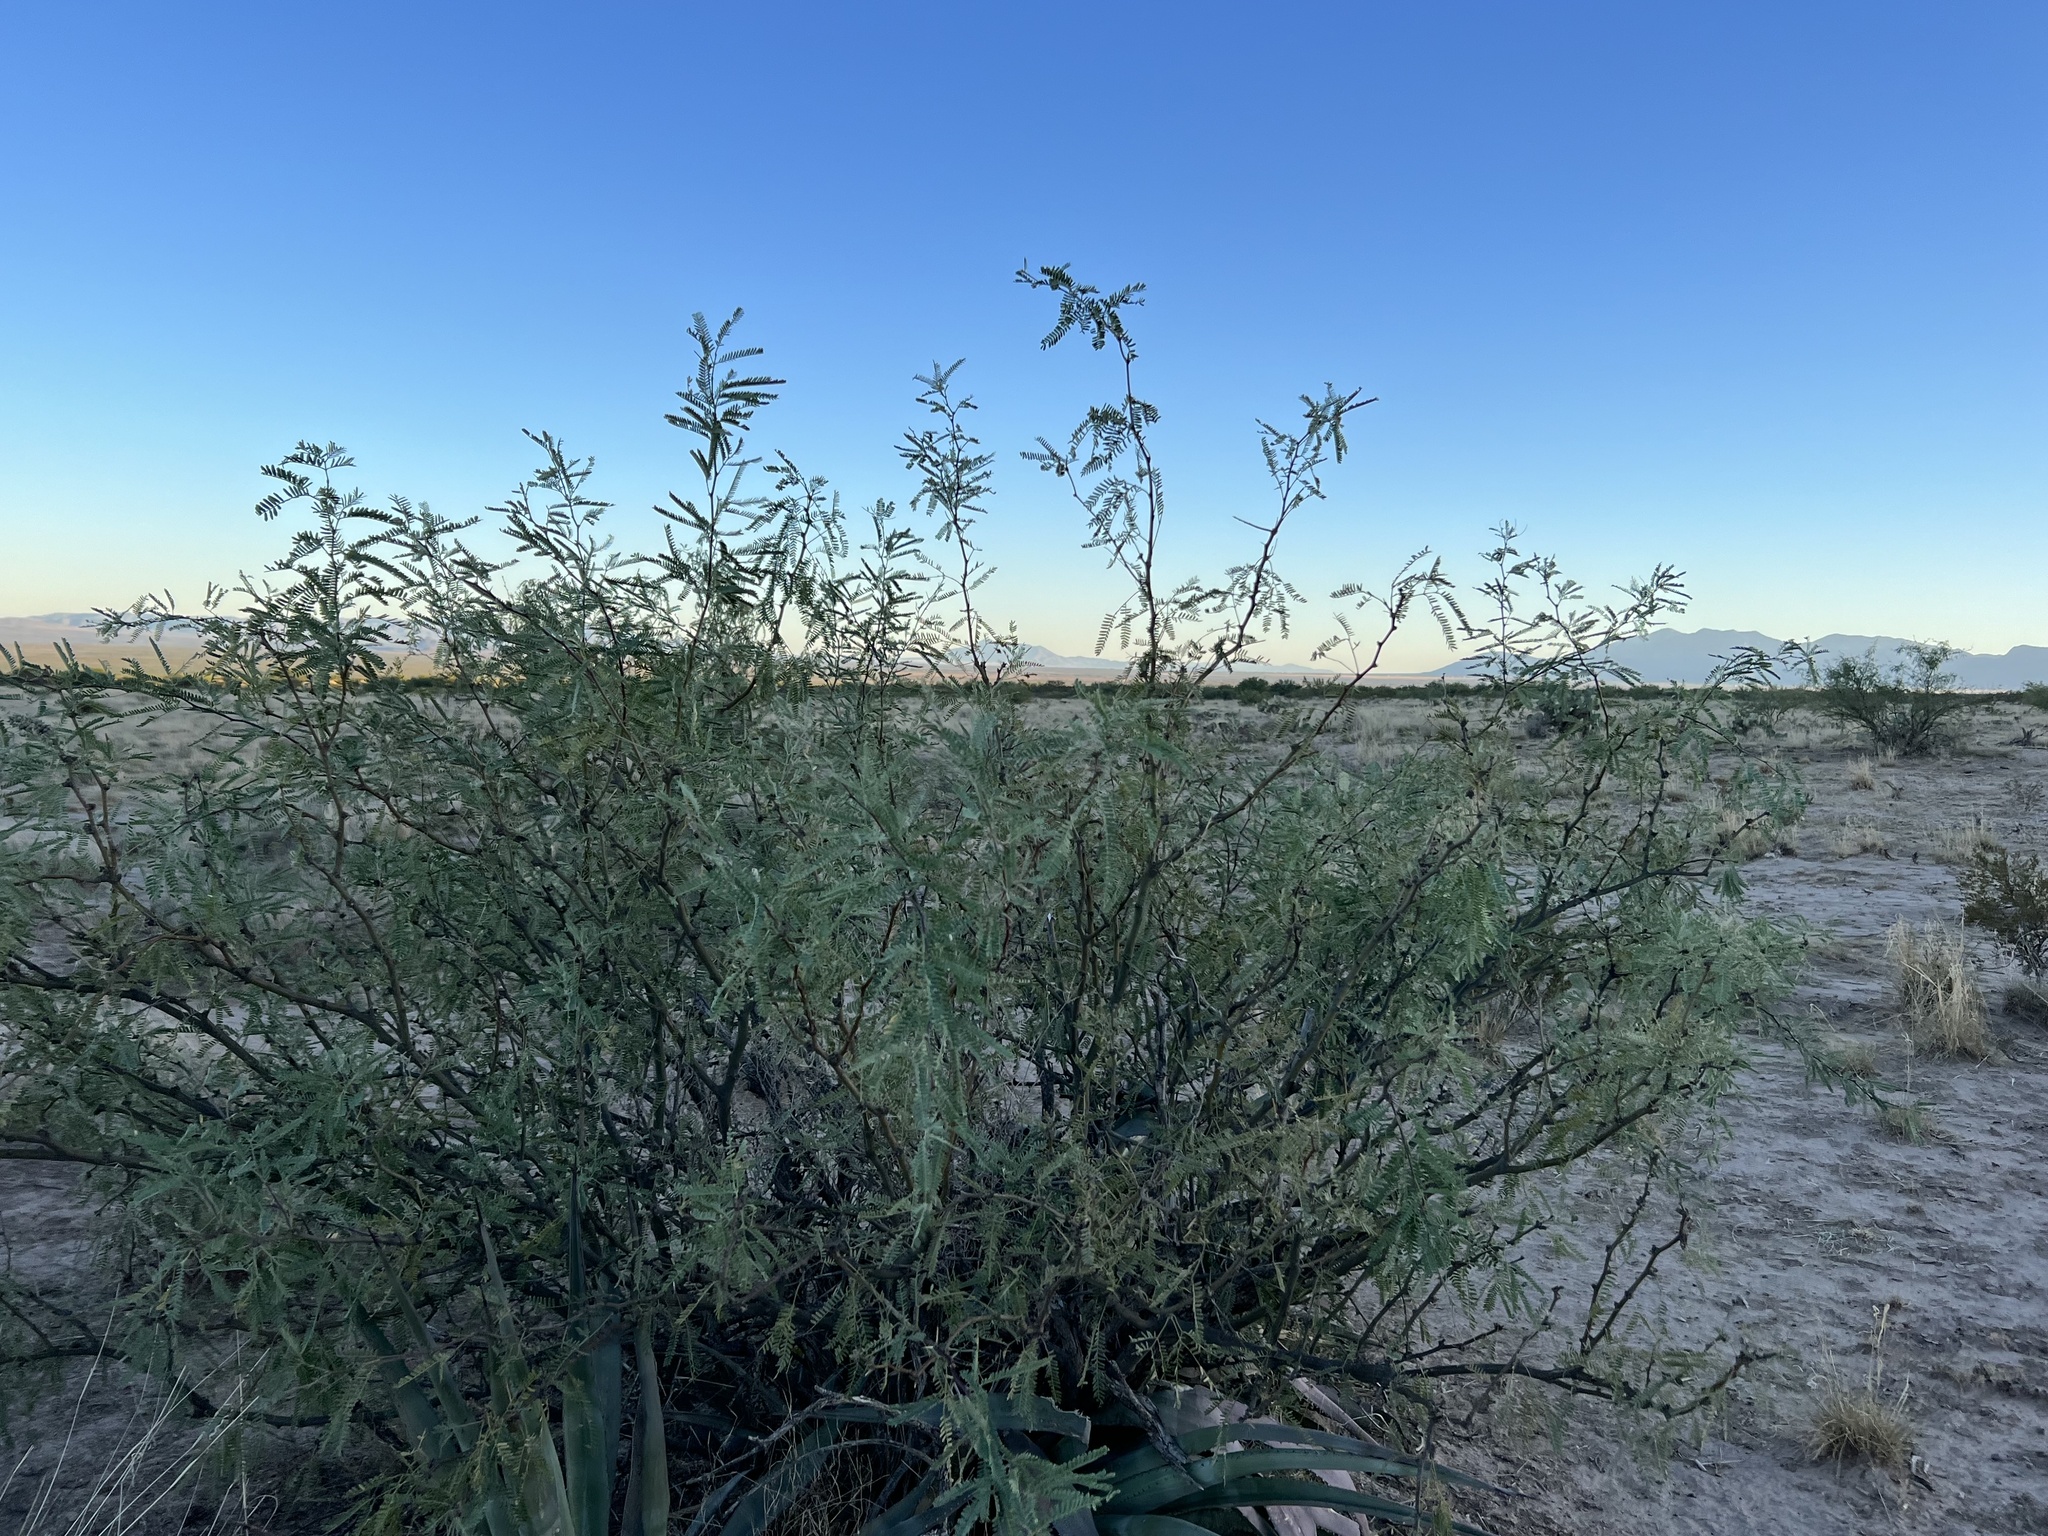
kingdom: Plantae
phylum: Tracheophyta
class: Magnoliopsida
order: Fabales
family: Fabaceae
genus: Prosopis
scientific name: Prosopis velutina
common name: Velvet mesquite
